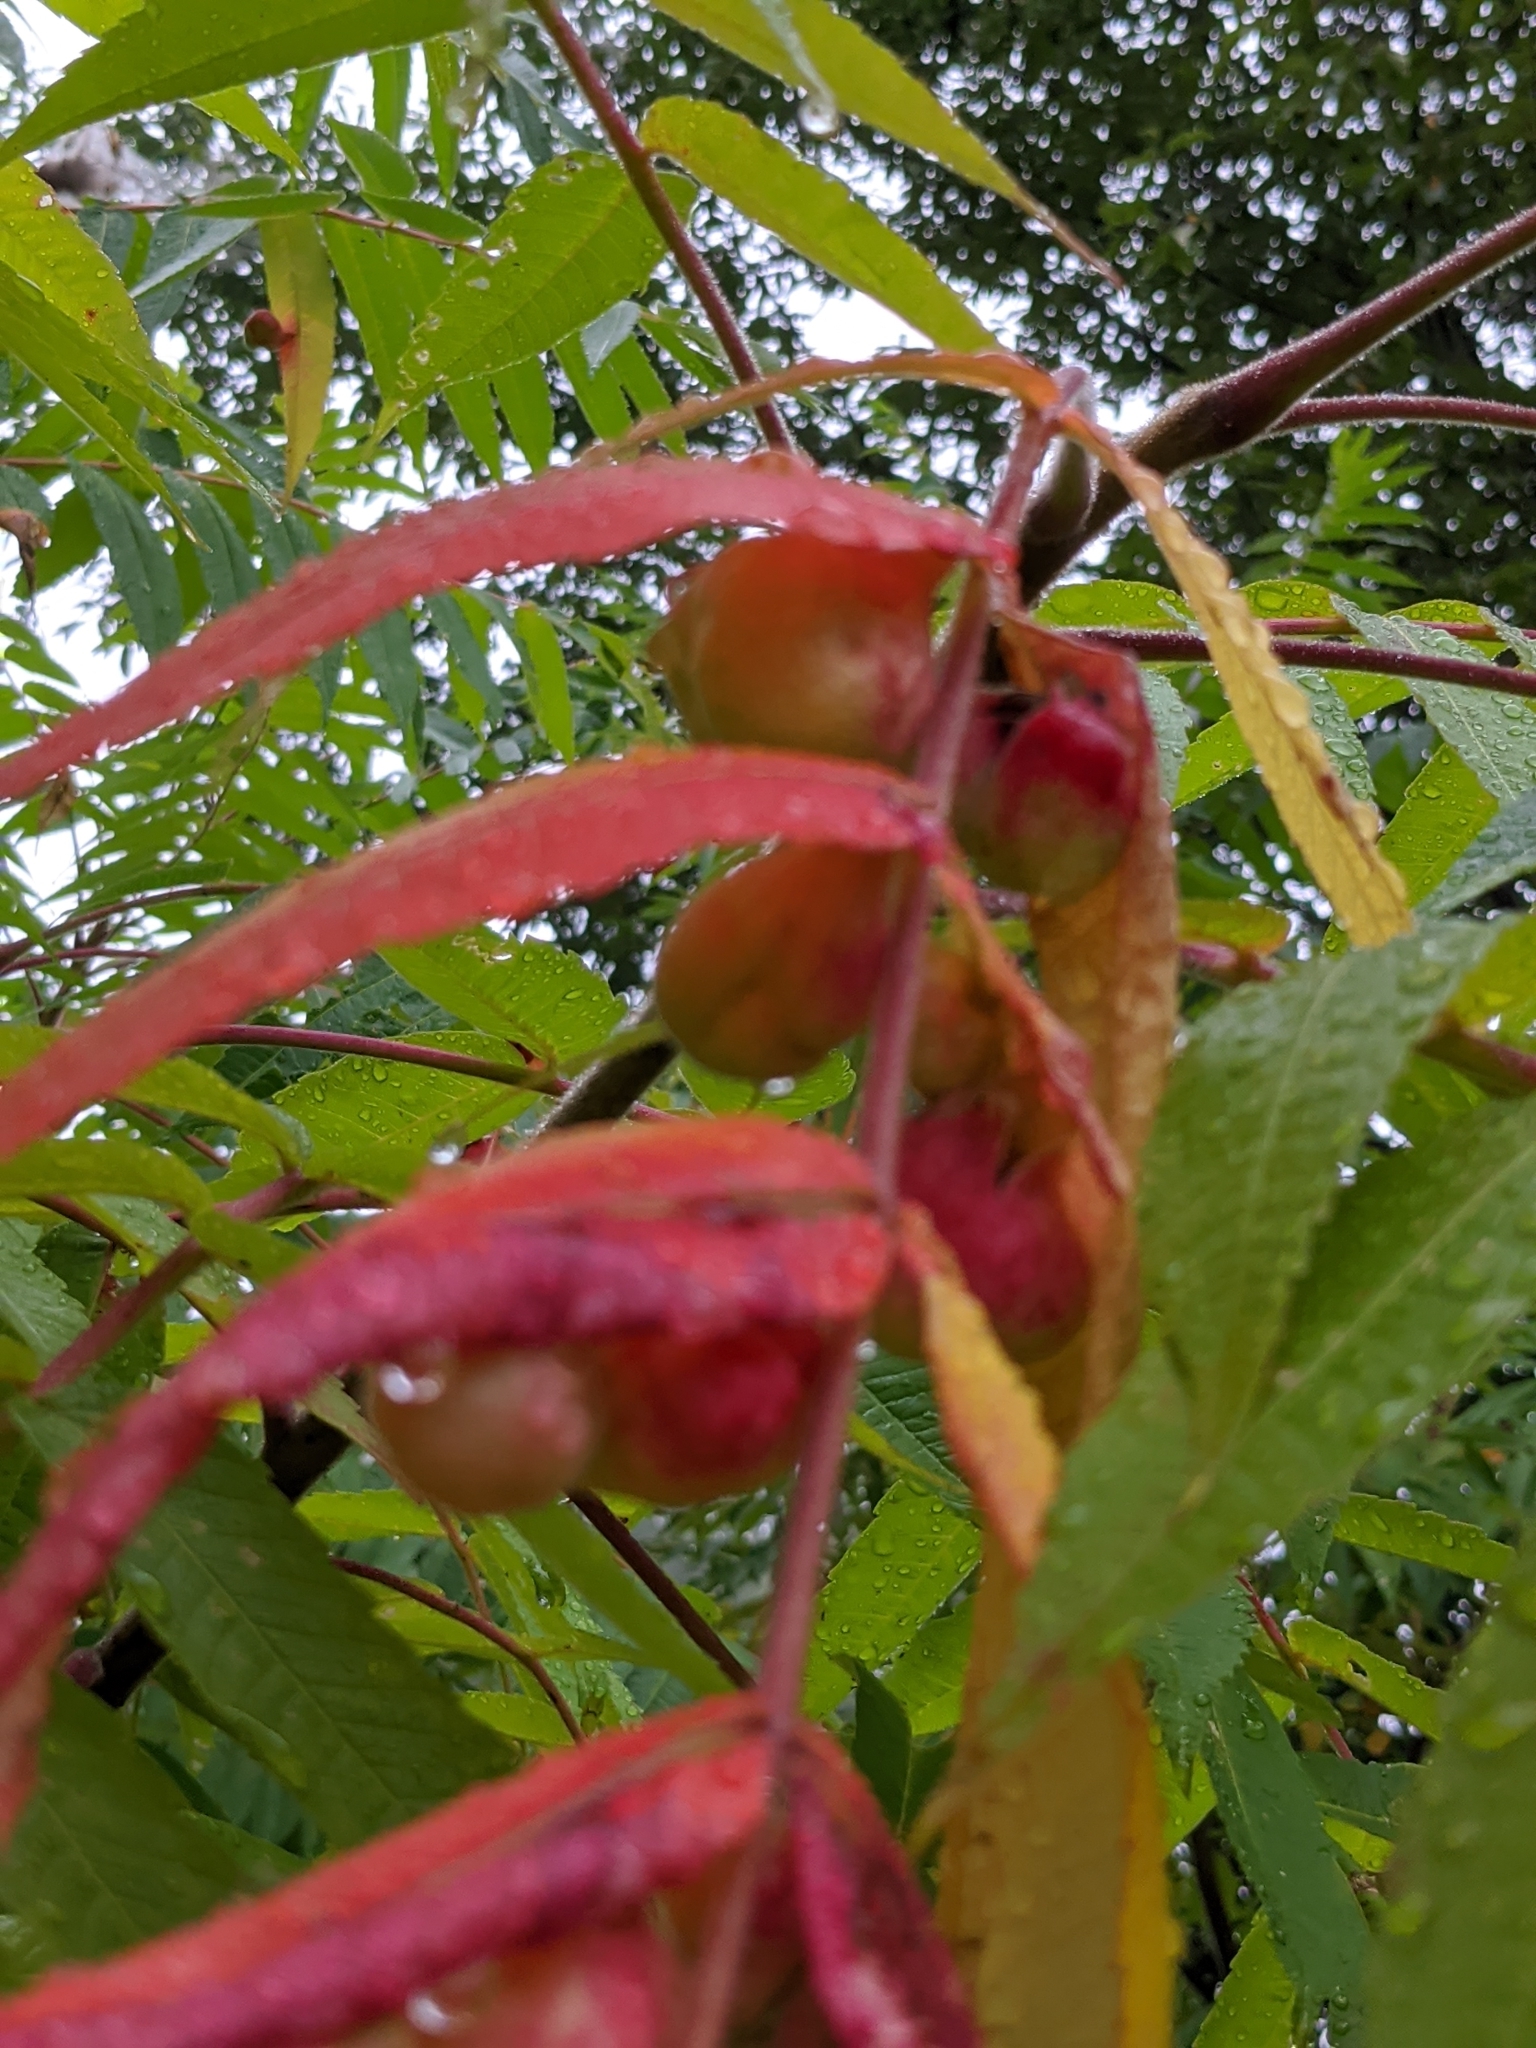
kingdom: Plantae
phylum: Tracheophyta
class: Magnoliopsida
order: Sapindales
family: Anacardiaceae
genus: Rhus
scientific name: Rhus typhina
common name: Staghorn sumac
